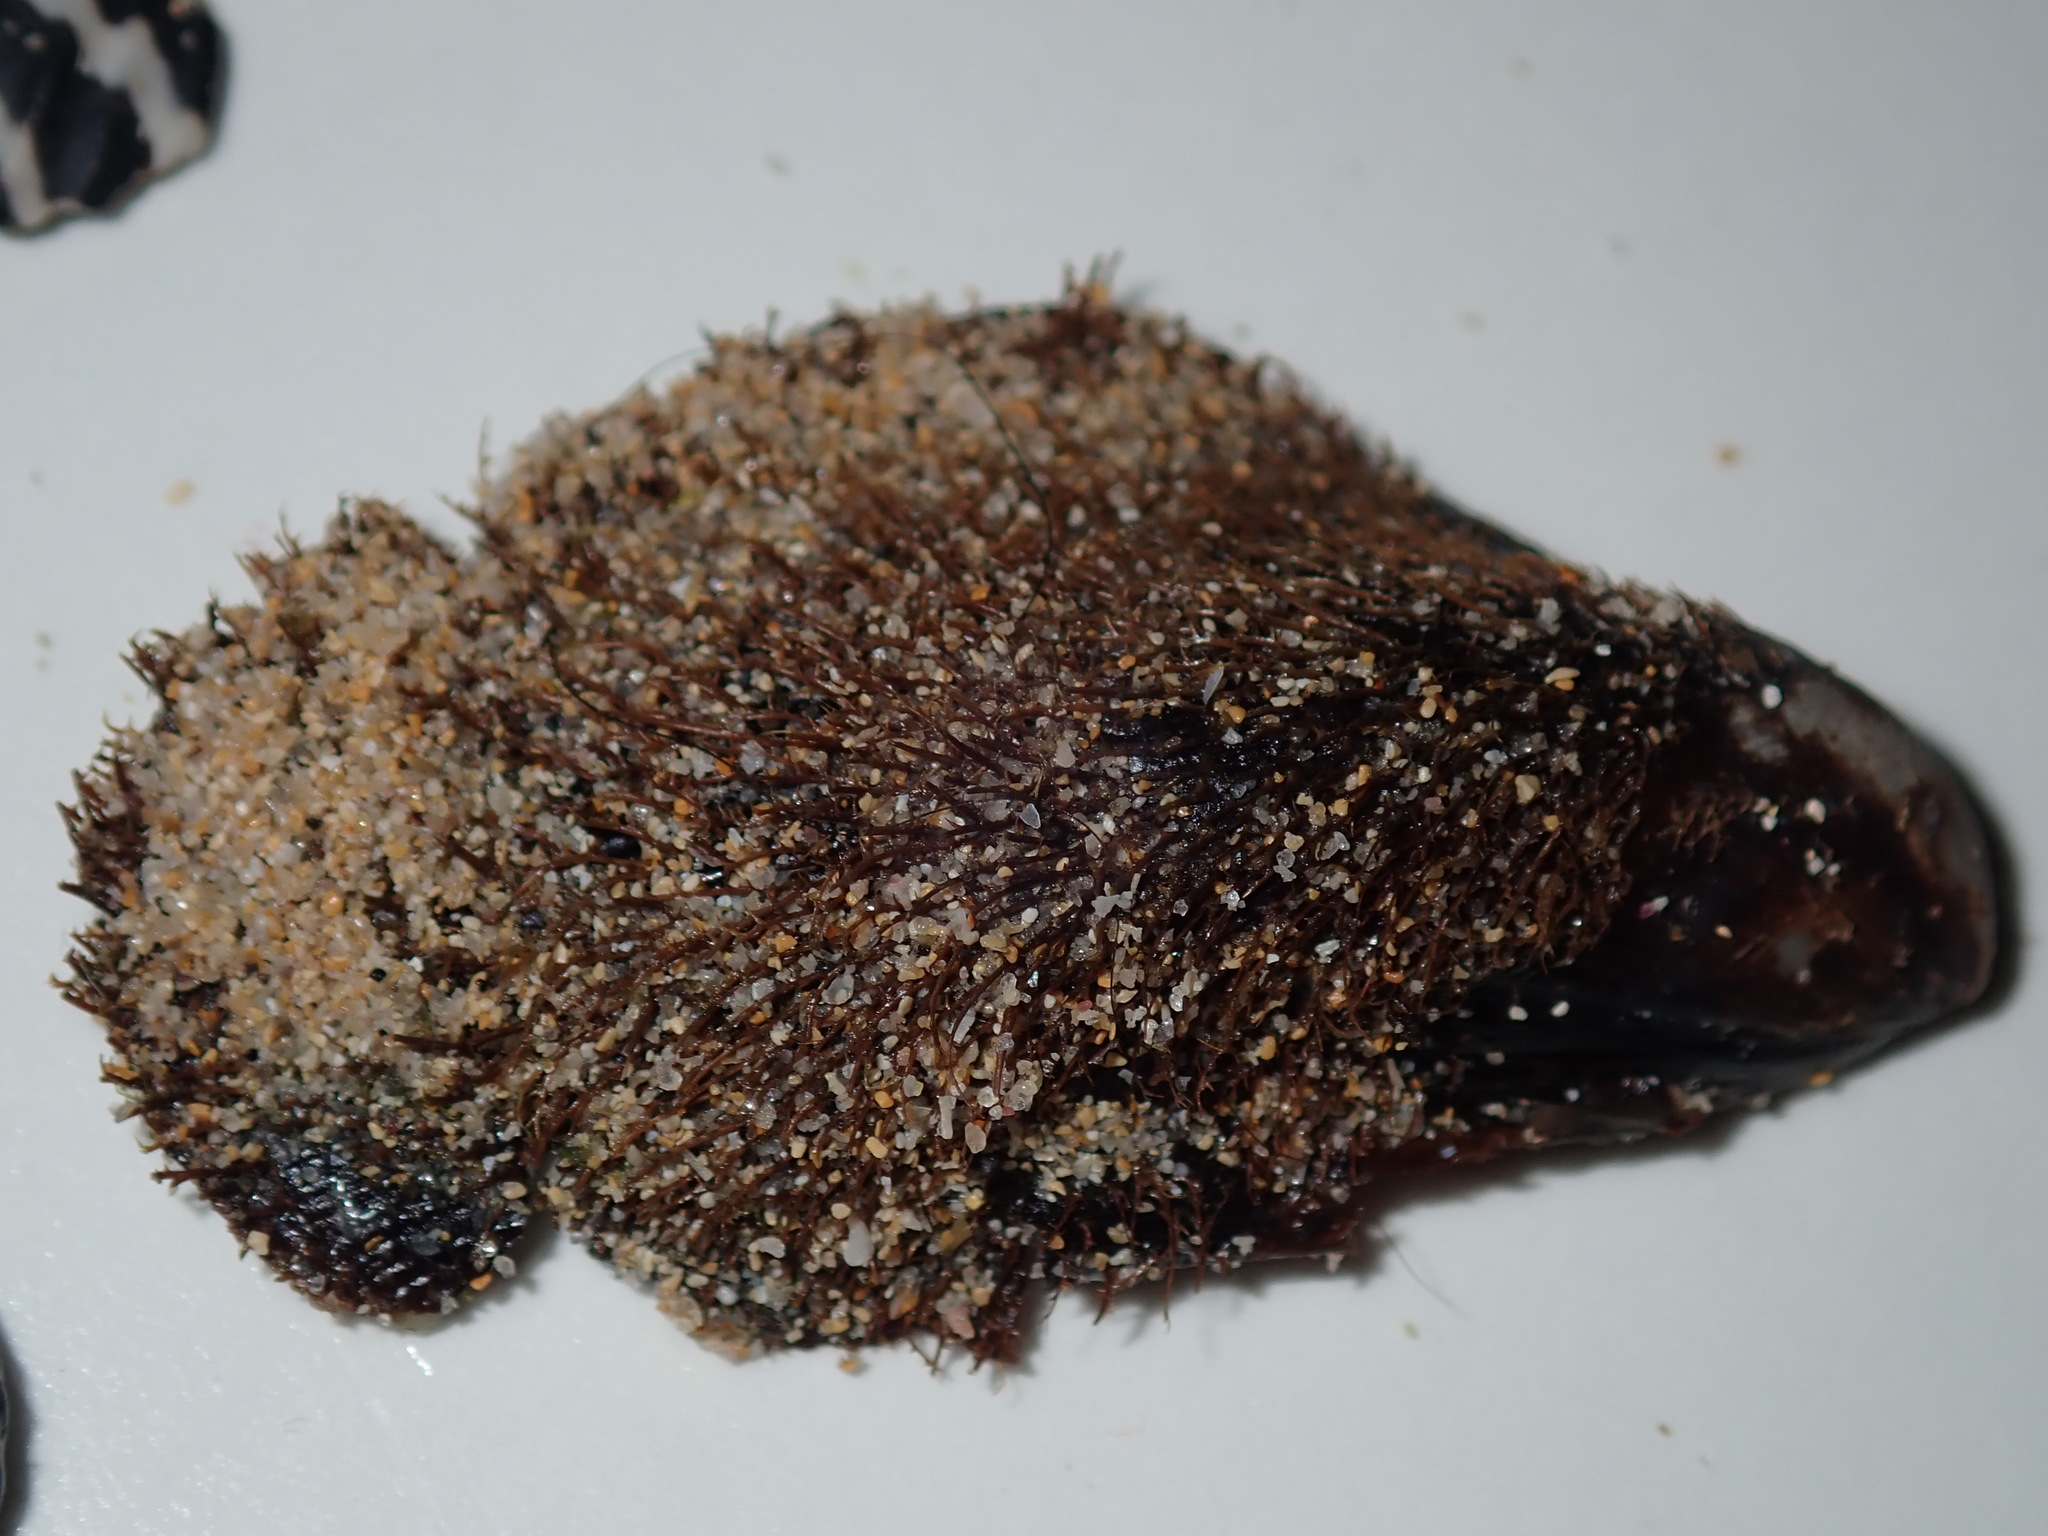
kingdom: Animalia
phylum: Mollusca
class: Bivalvia
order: Mytilida
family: Mytilidae
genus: Trichomya
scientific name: Trichomya hirsuta
